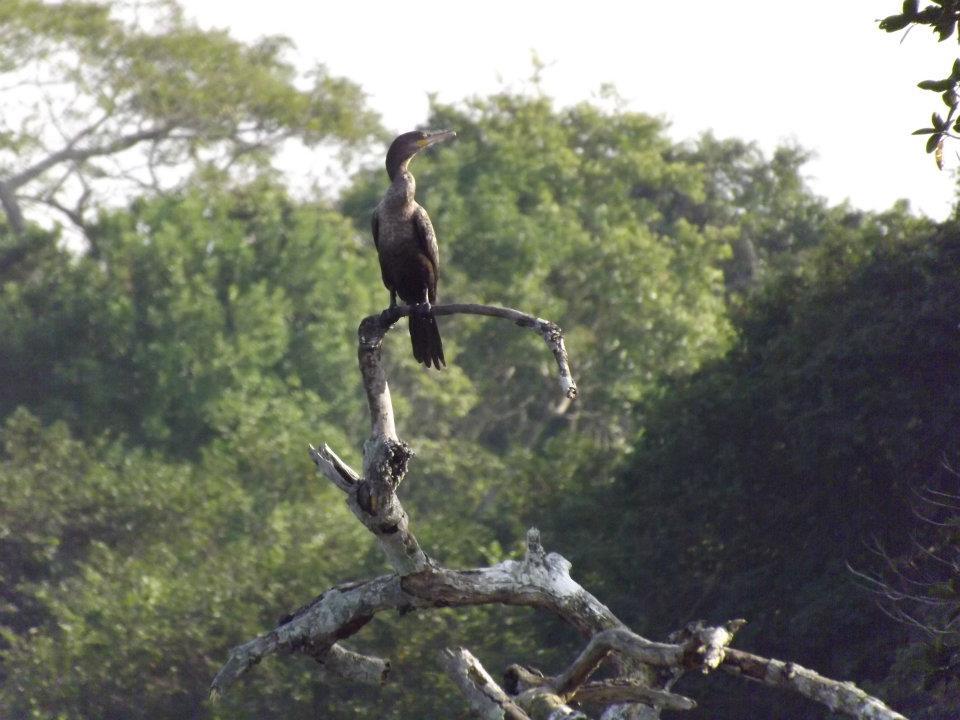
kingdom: Animalia
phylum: Chordata
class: Aves
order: Suliformes
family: Phalacrocoracidae
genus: Phalacrocorax
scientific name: Phalacrocorax brasilianus
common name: Neotropic cormorant
